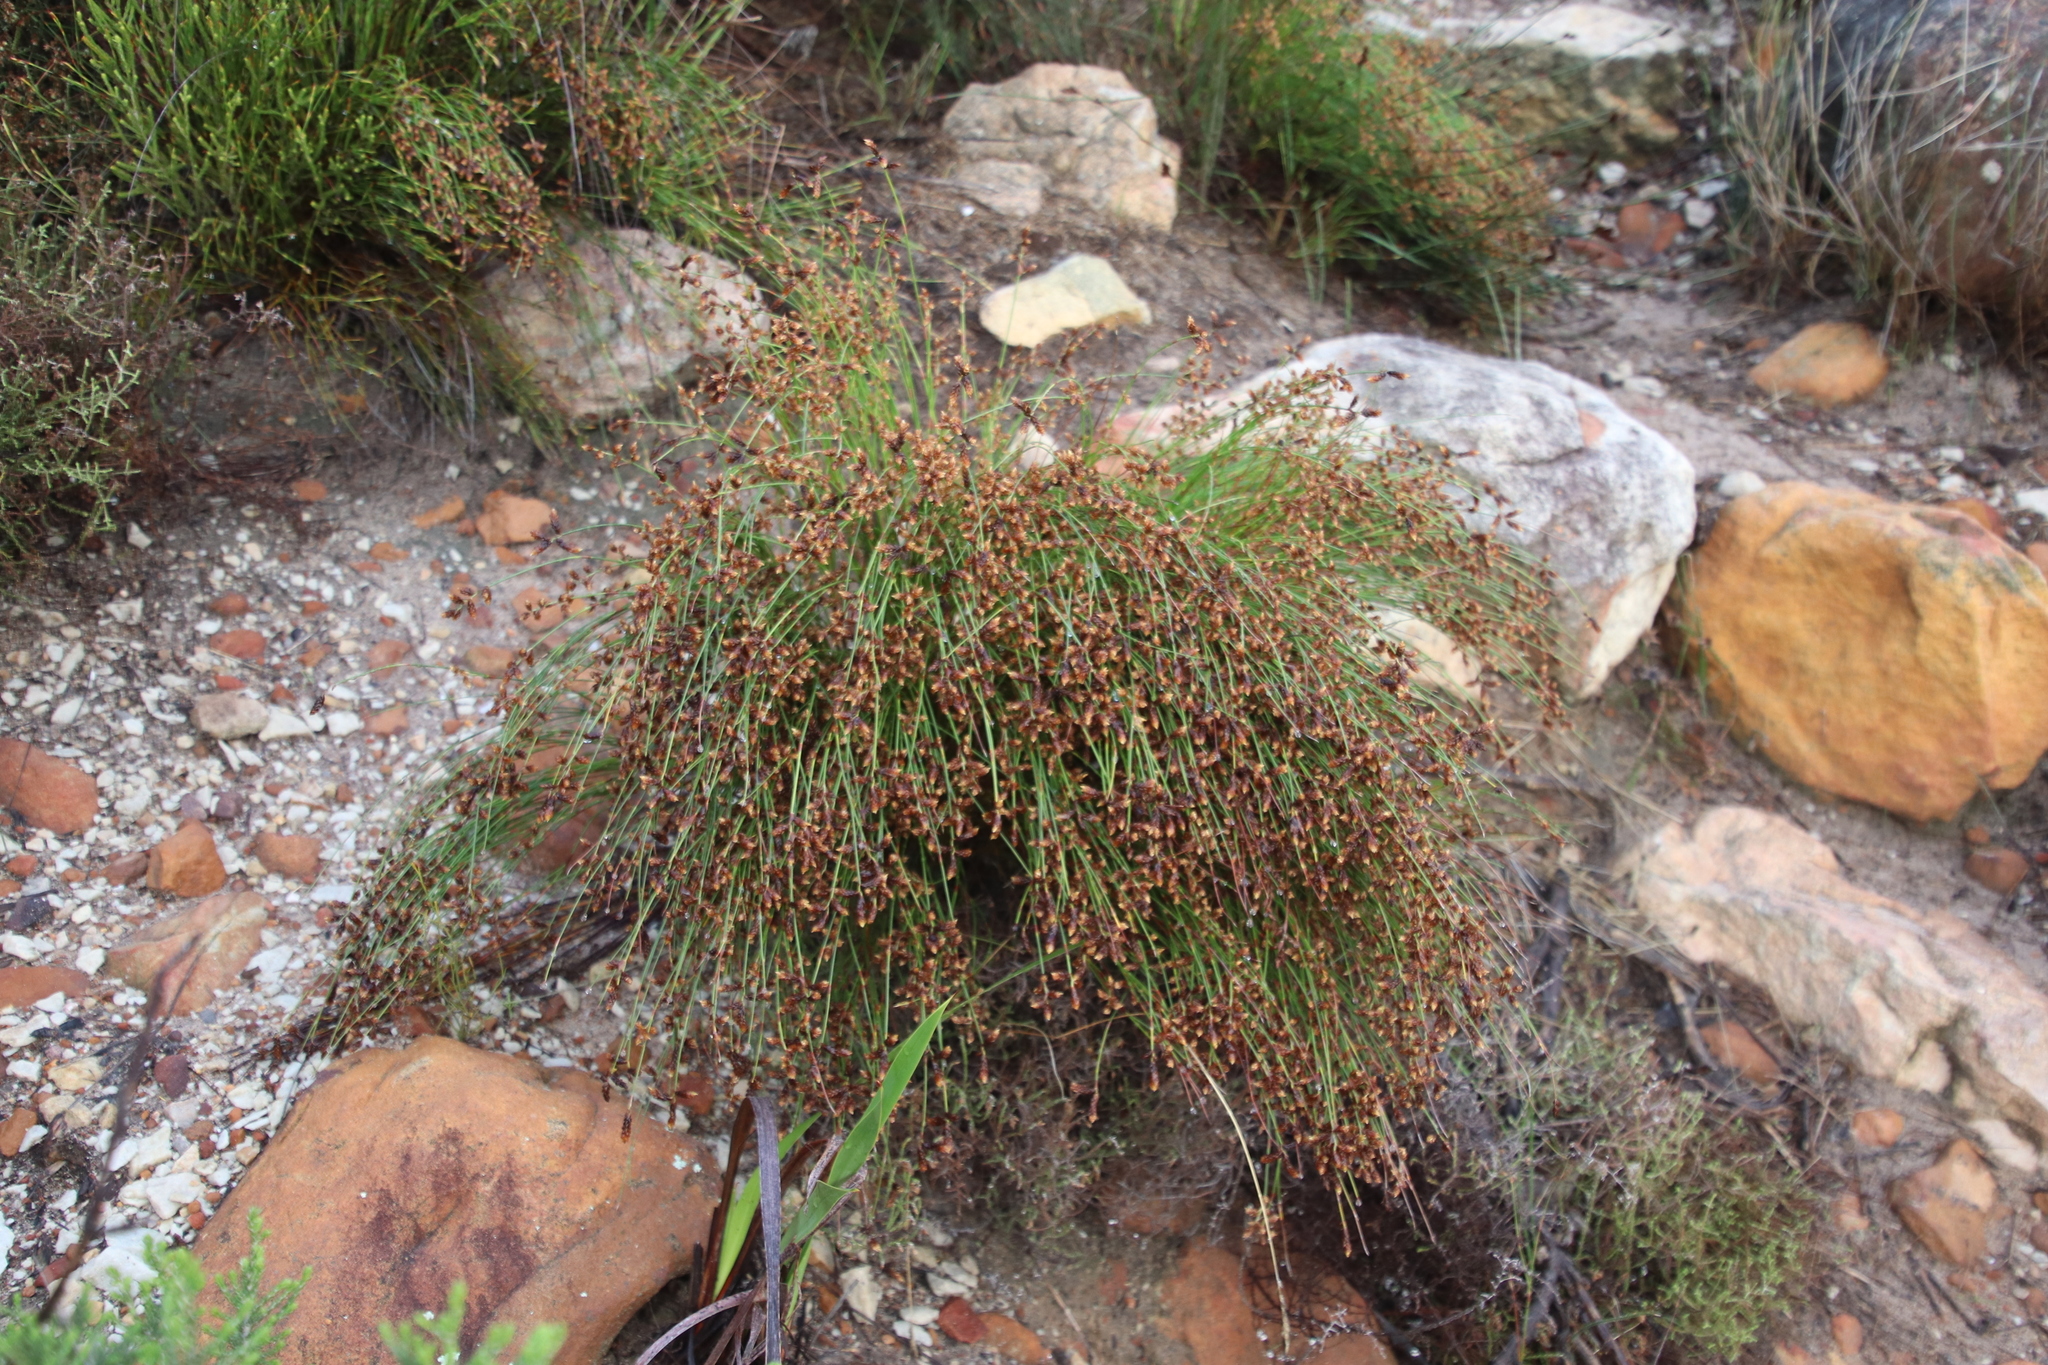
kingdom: Plantae
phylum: Tracheophyta
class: Liliopsida
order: Poales
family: Restionaceae
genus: Mastersiella
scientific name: Mastersiella digitata
